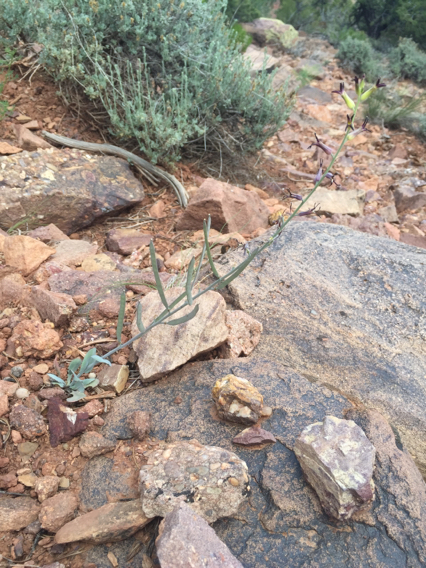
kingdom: Plantae
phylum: Tracheophyta
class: Magnoliopsida
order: Brassicales
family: Brassicaceae
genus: Streptanthus
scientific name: Streptanthus cordatus
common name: Heart-leaf jewel-flower
